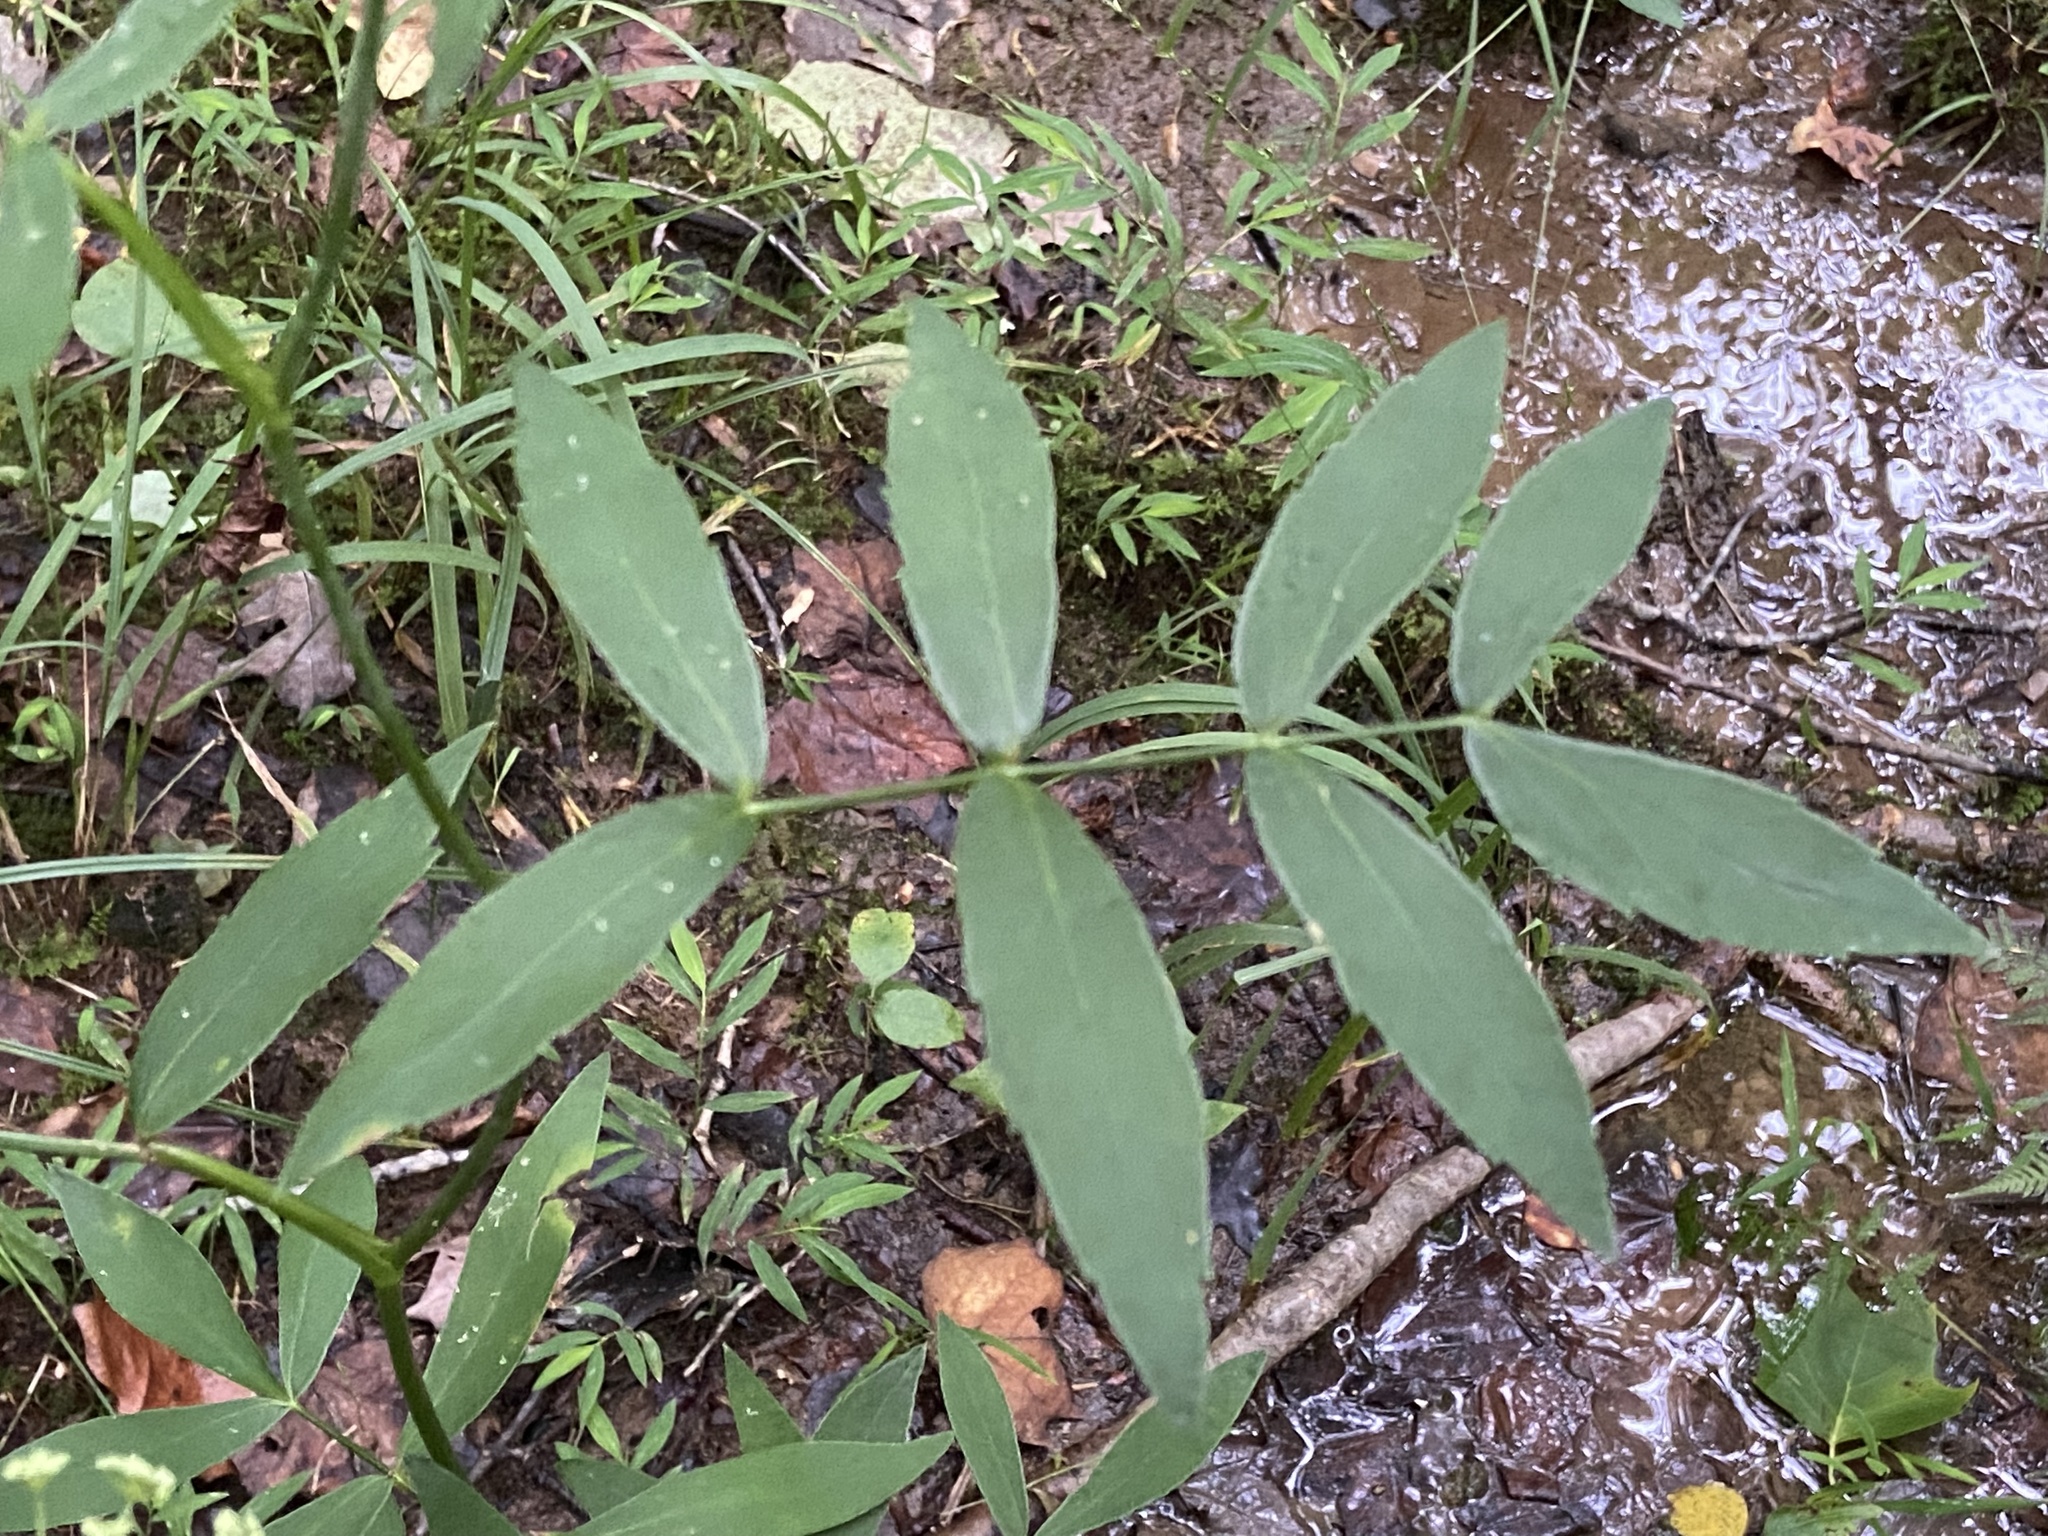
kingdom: Plantae
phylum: Tracheophyta
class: Magnoliopsida
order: Apiales
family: Apiaceae
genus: Oxypolis
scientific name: Oxypolis rigidior
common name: Cowbane
